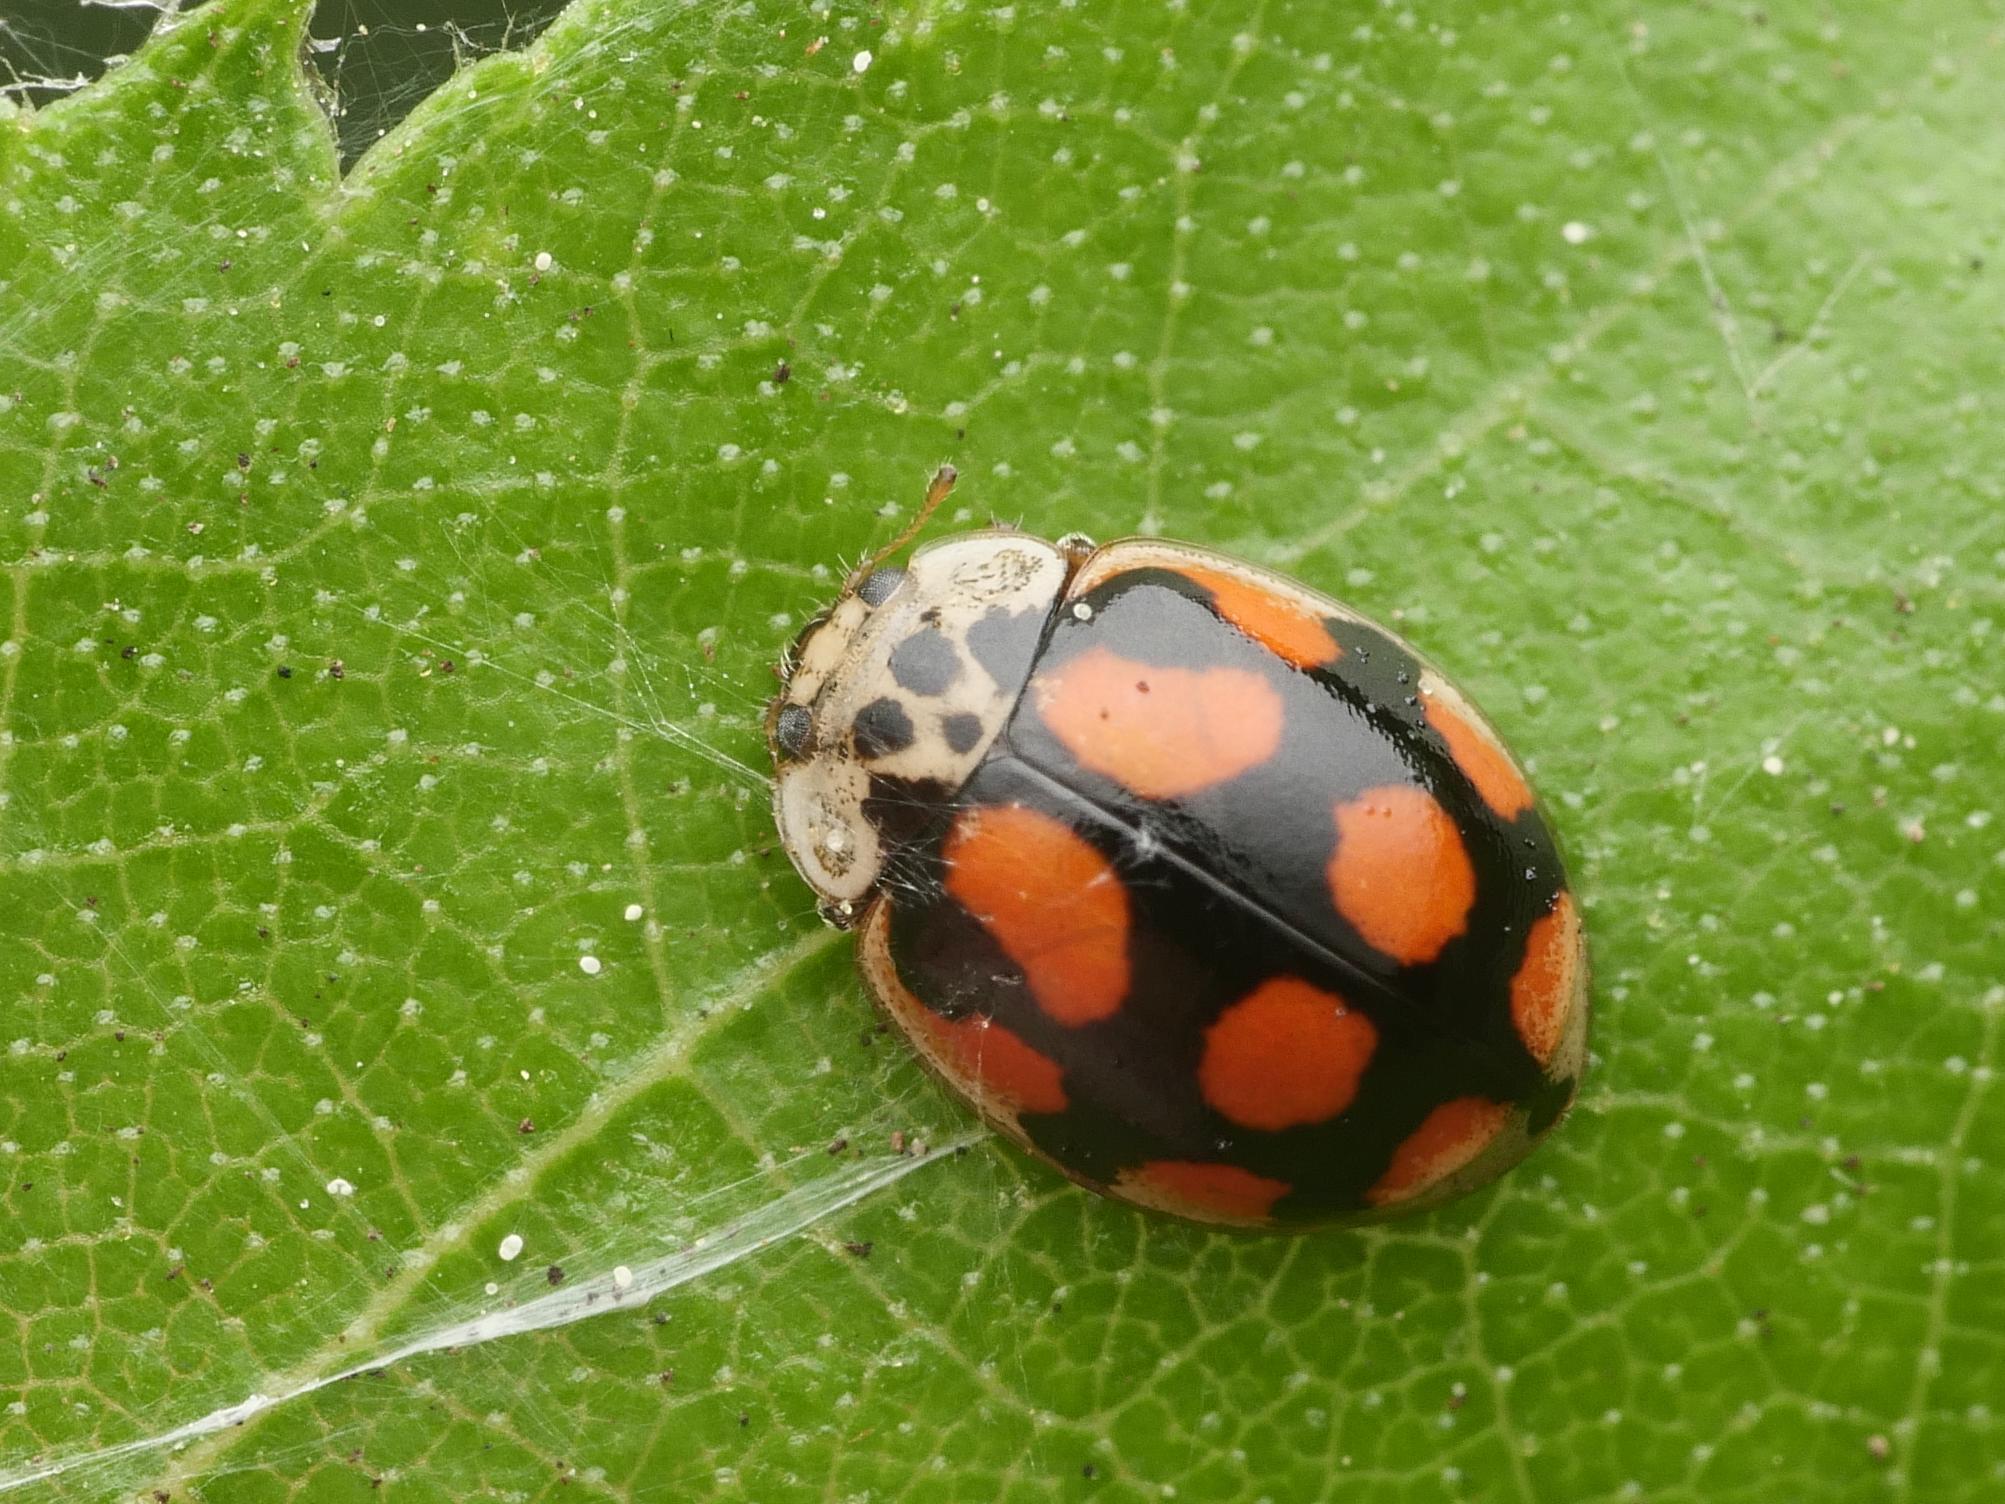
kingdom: Animalia
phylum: Arthropoda
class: Insecta
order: Coleoptera
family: Coccinellidae
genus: Adalia
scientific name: Adalia decempunctata
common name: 10-spot ladybird
